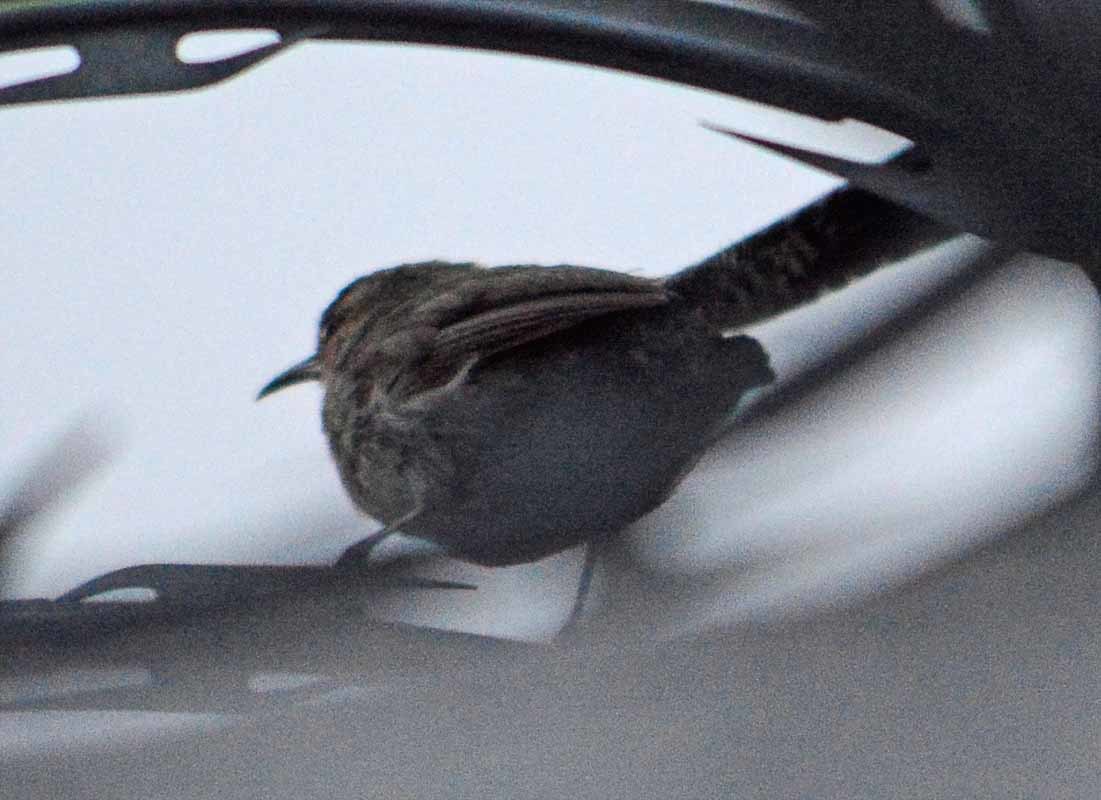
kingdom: Animalia
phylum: Chordata
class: Aves
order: Passeriformes
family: Troglodytidae
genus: Thryomanes
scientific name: Thryomanes bewickii
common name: Bewick's wren
